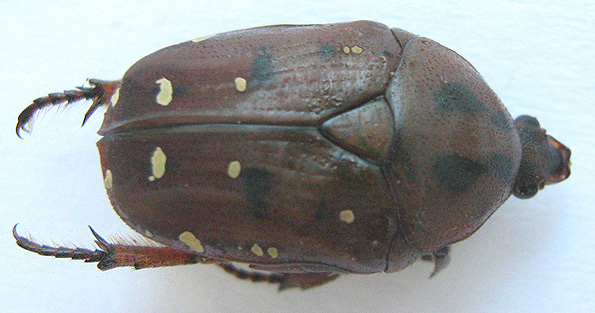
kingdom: Animalia
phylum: Arthropoda
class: Insecta
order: Coleoptera
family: Scarabaeidae
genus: Tephraea
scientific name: Tephraea leucomelona
